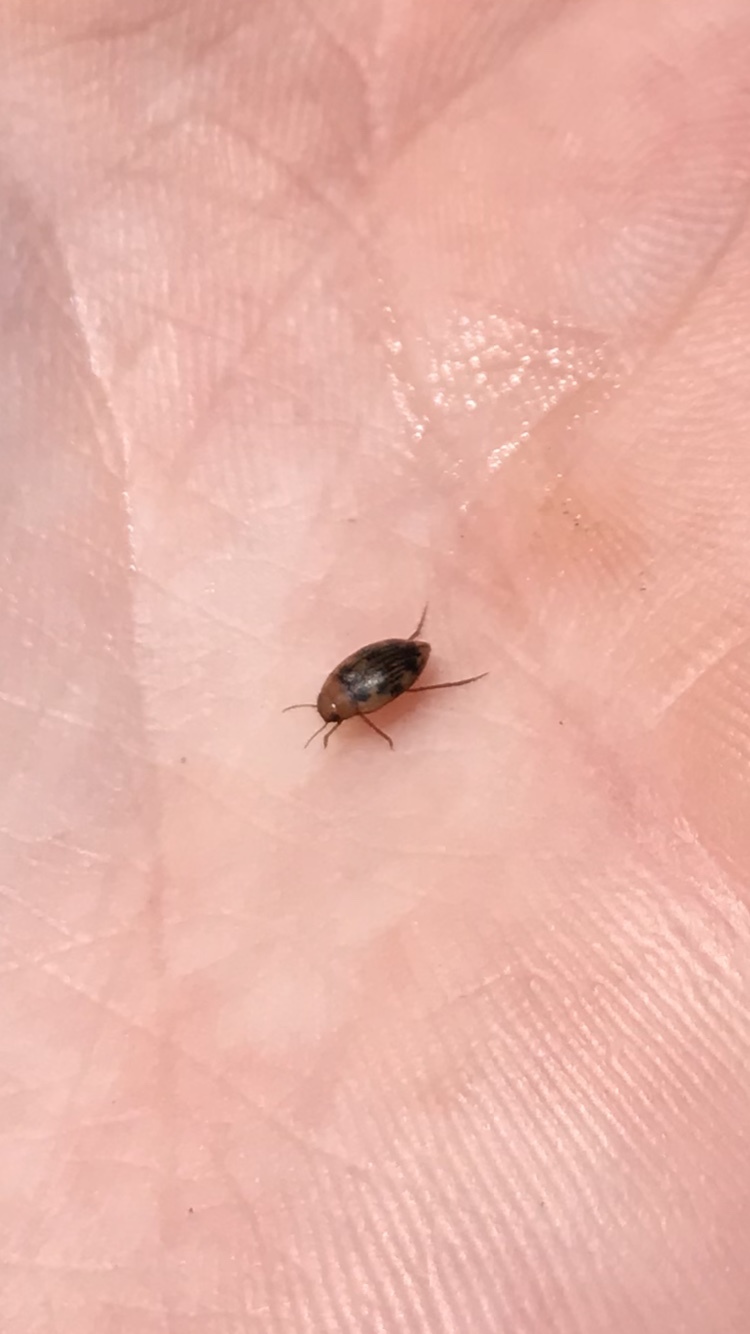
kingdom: Animalia
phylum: Arthropoda
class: Insecta
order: Coleoptera
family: Dytiscidae
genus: Neoporus
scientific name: Neoporus dimidiatus
